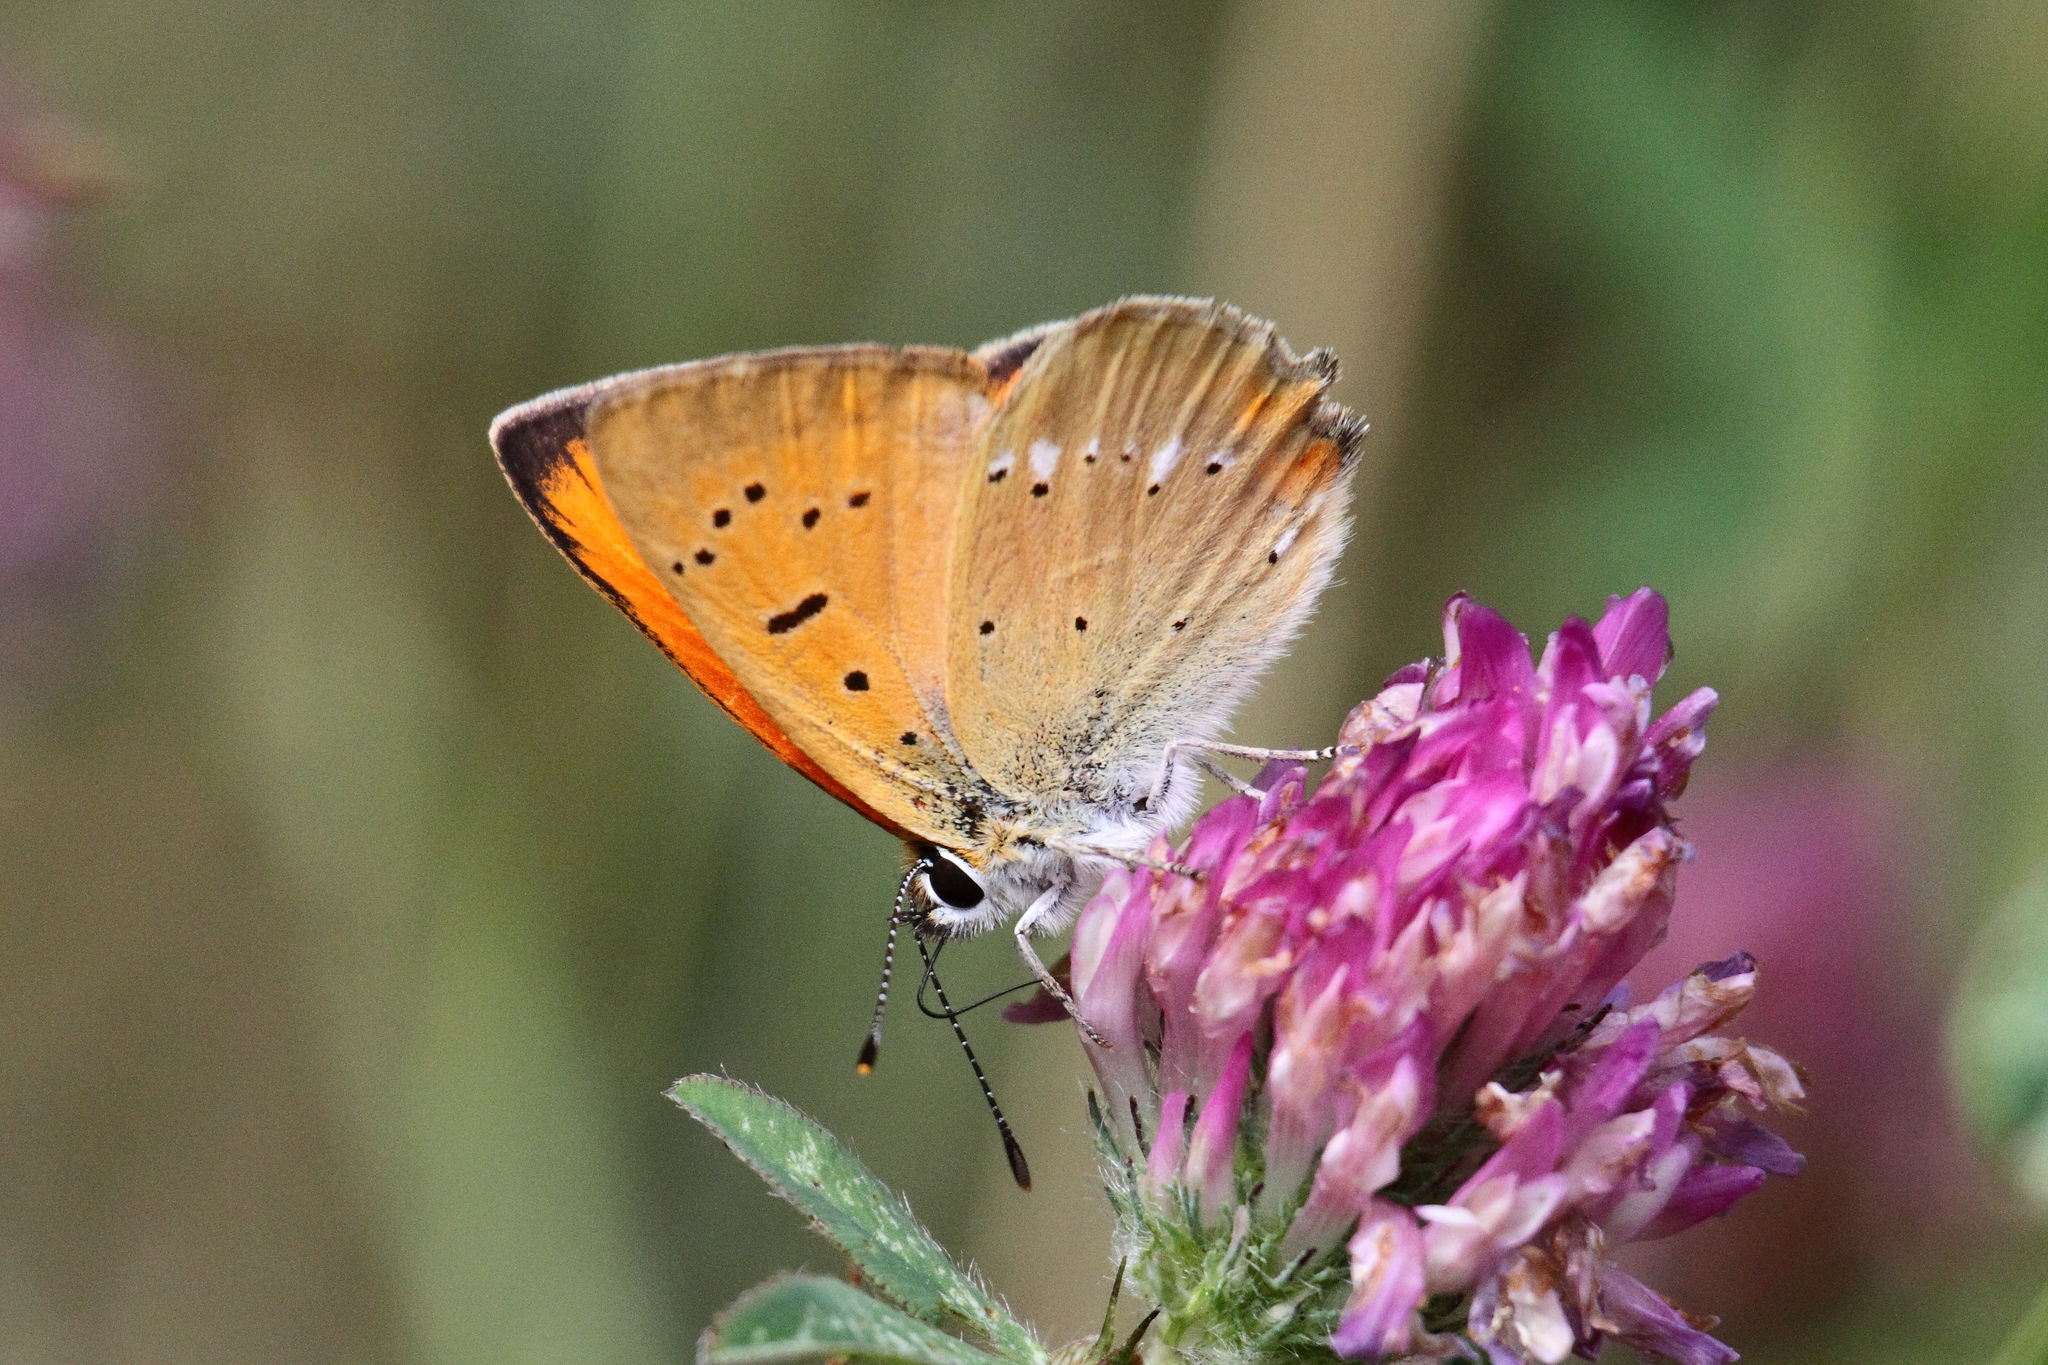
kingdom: Animalia
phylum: Arthropoda
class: Insecta
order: Lepidoptera
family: Lycaenidae
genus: Lycaena
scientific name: Lycaena virgaureae
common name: Scarce copper
